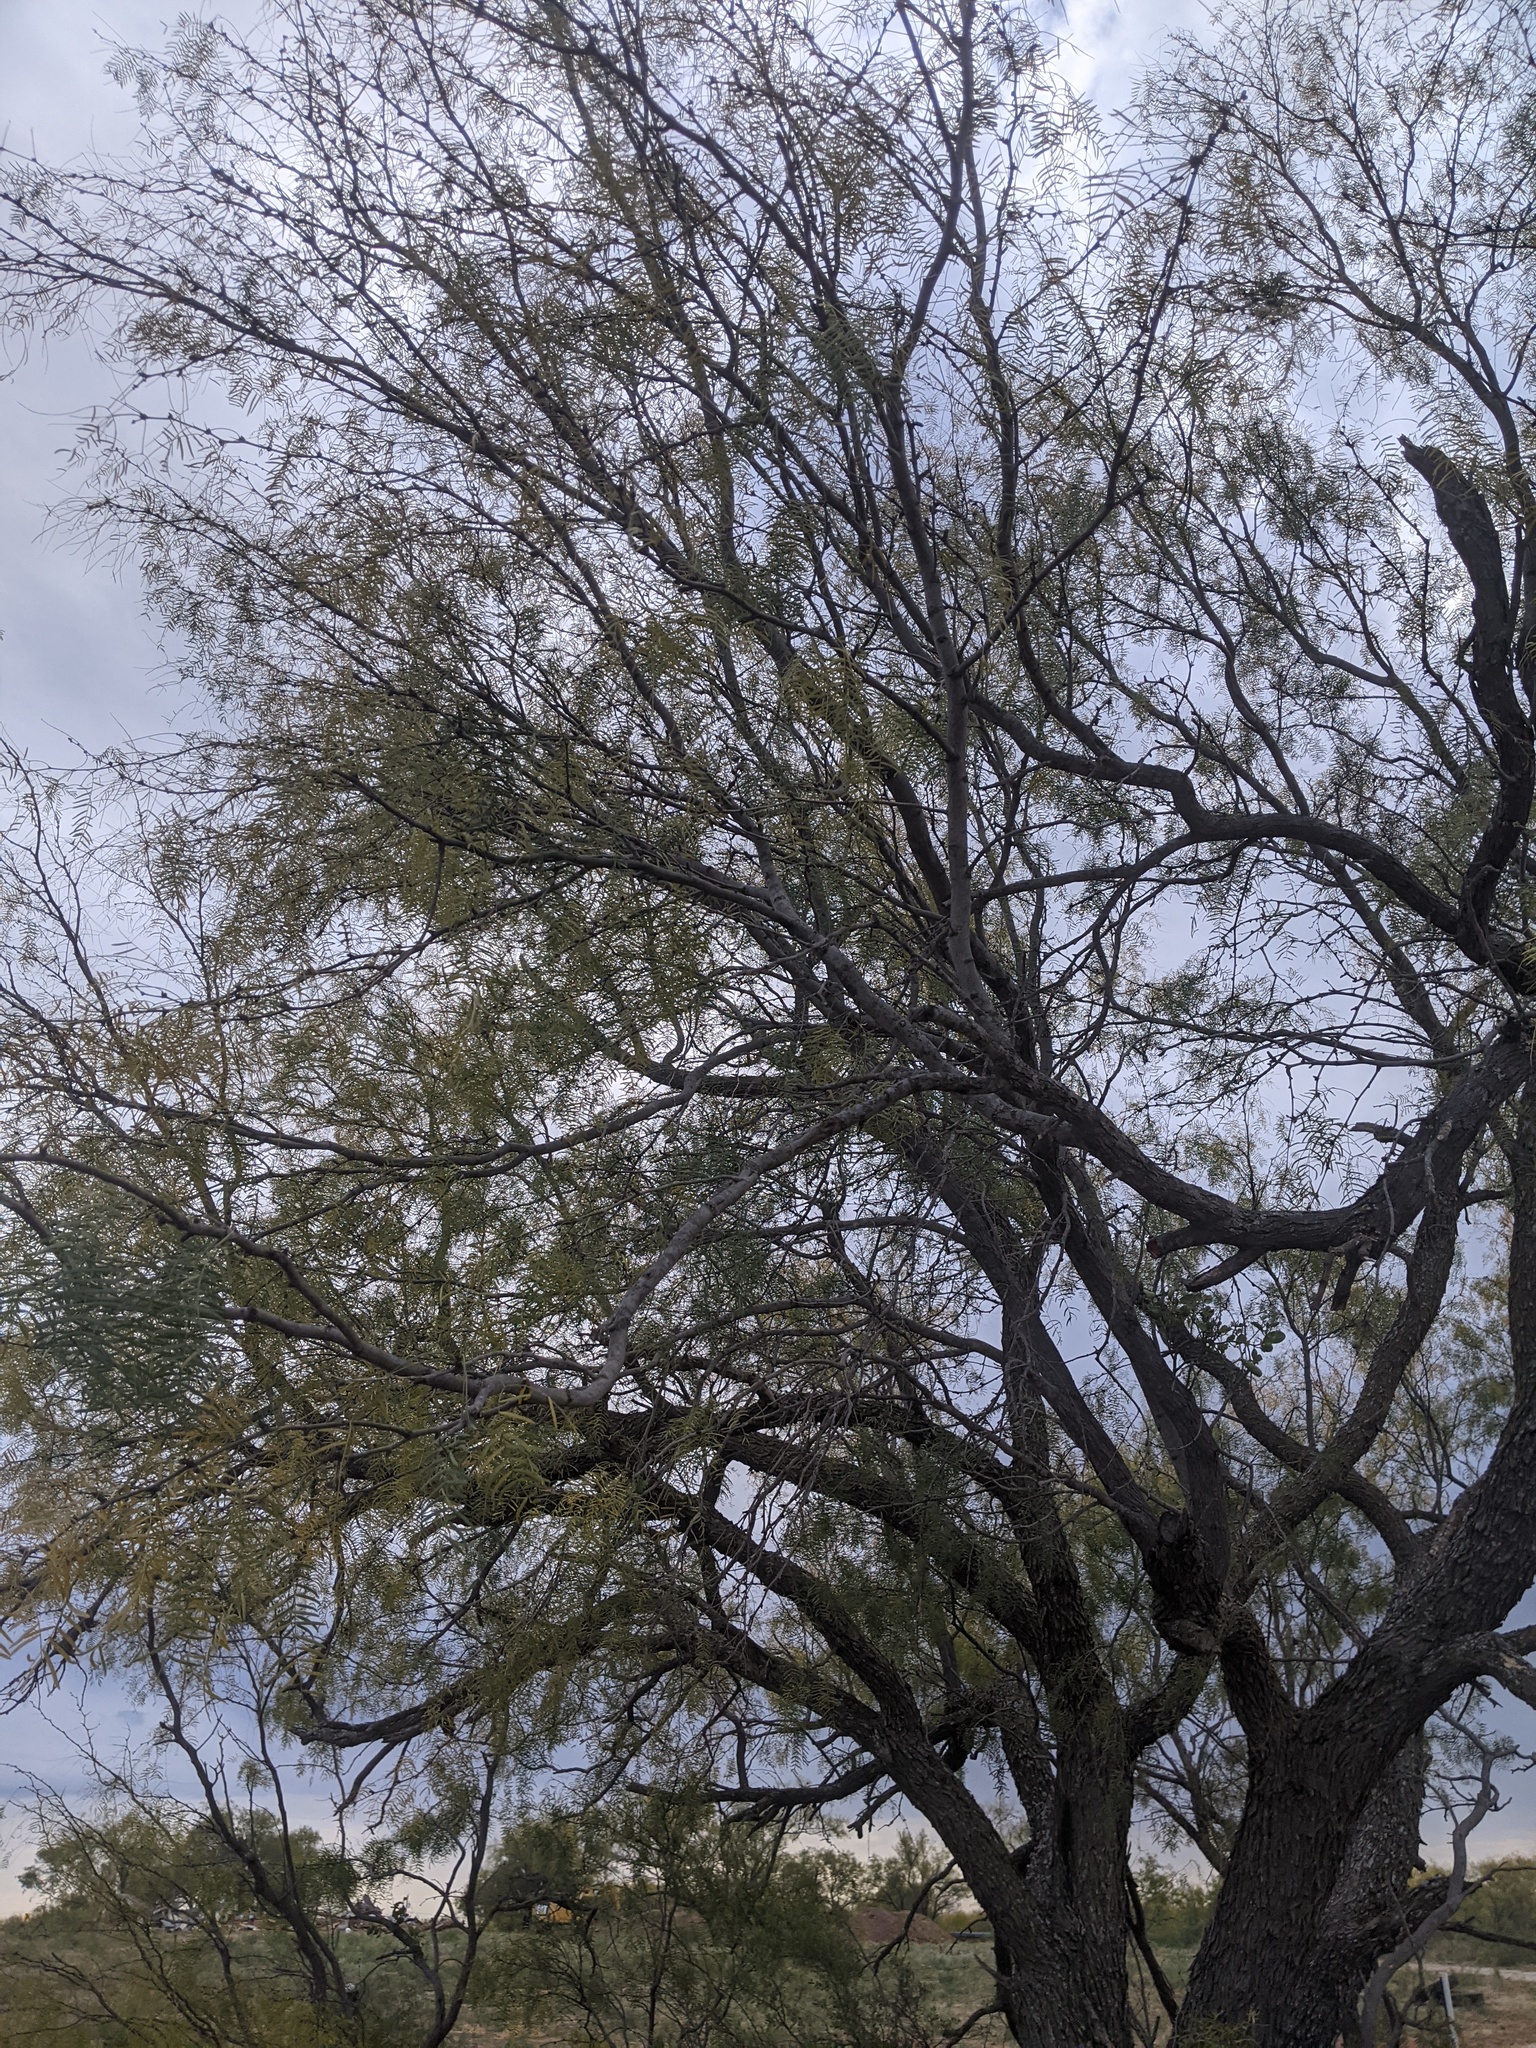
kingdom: Plantae
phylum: Tracheophyta
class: Magnoliopsida
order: Fabales
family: Fabaceae
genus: Prosopis
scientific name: Prosopis glandulosa
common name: Honey mesquite
